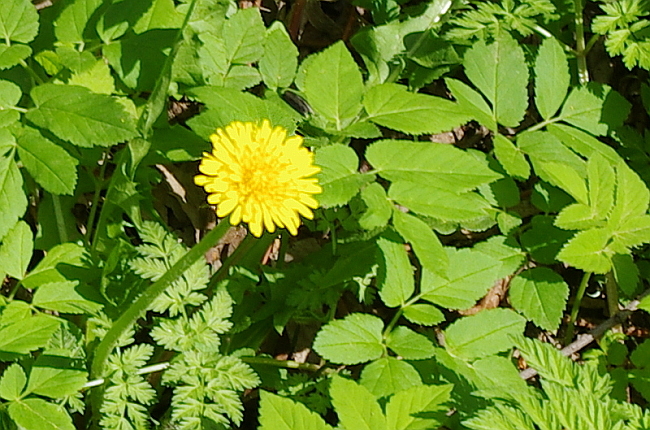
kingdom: Plantae
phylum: Tracheophyta
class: Magnoliopsida
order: Asterales
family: Asteraceae
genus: Taraxacum
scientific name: Taraxacum officinale
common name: Common dandelion
